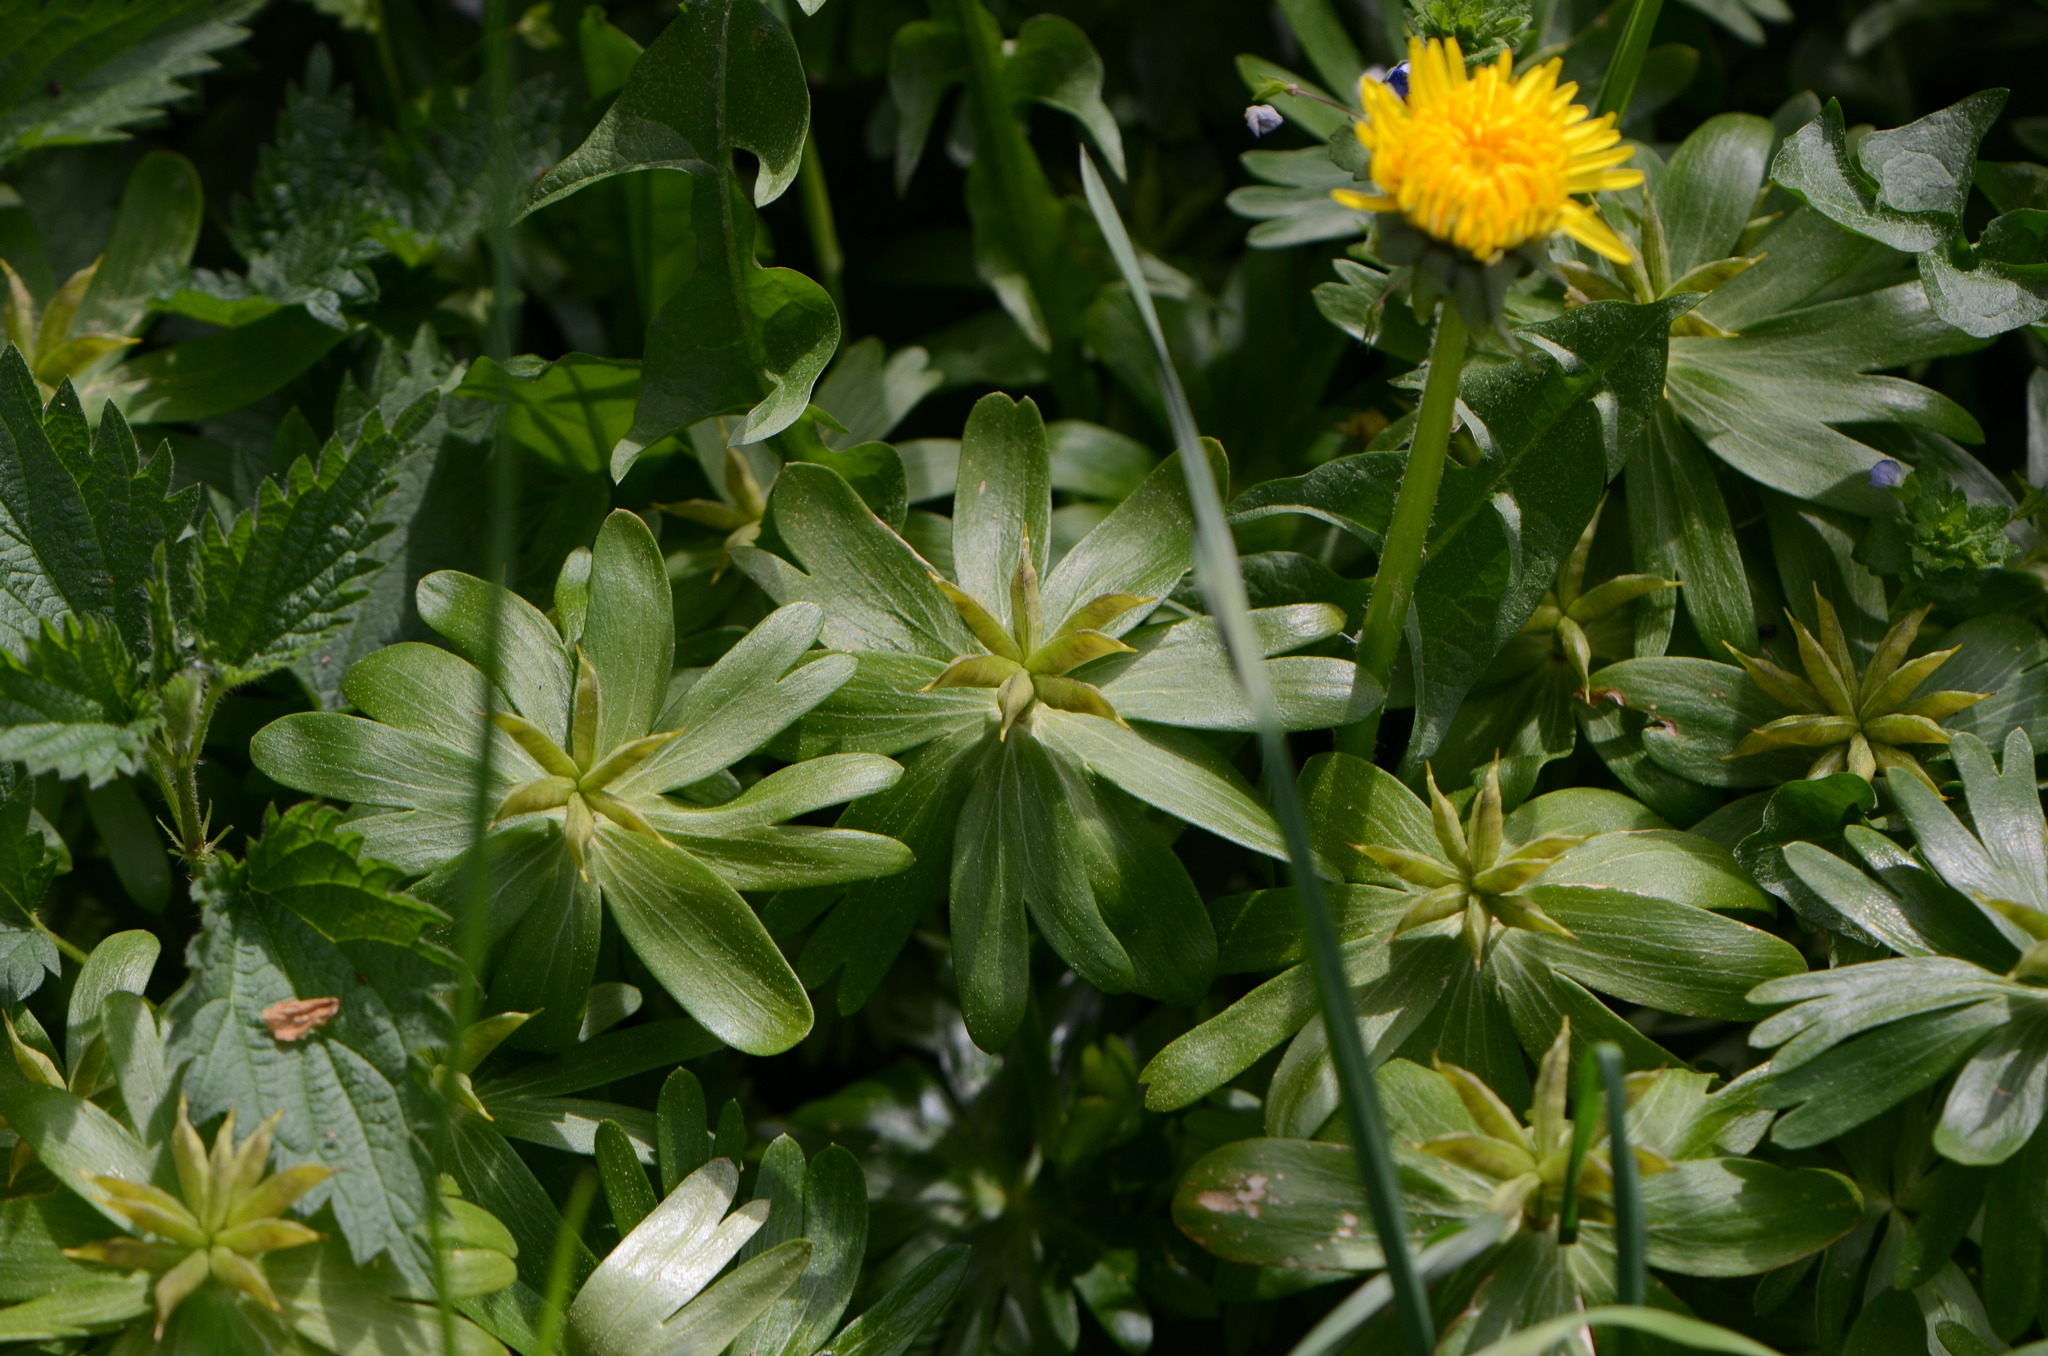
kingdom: Plantae
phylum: Tracheophyta
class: Magnoliopsida
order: Ranunculales
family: Ranunculaceae
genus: Eranthis
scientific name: Eranthis hyemalis
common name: Winter aconite
